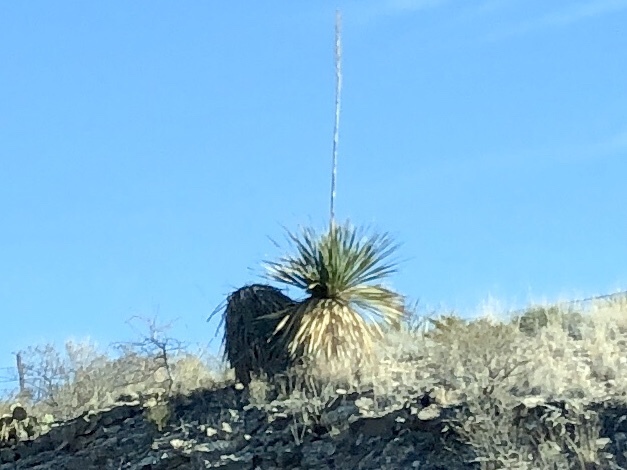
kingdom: Plantae
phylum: Tracheophyta
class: Liliopsida
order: Asparagales
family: Asparagaceae
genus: Dasylirion
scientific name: Dasylirion wheeleri
